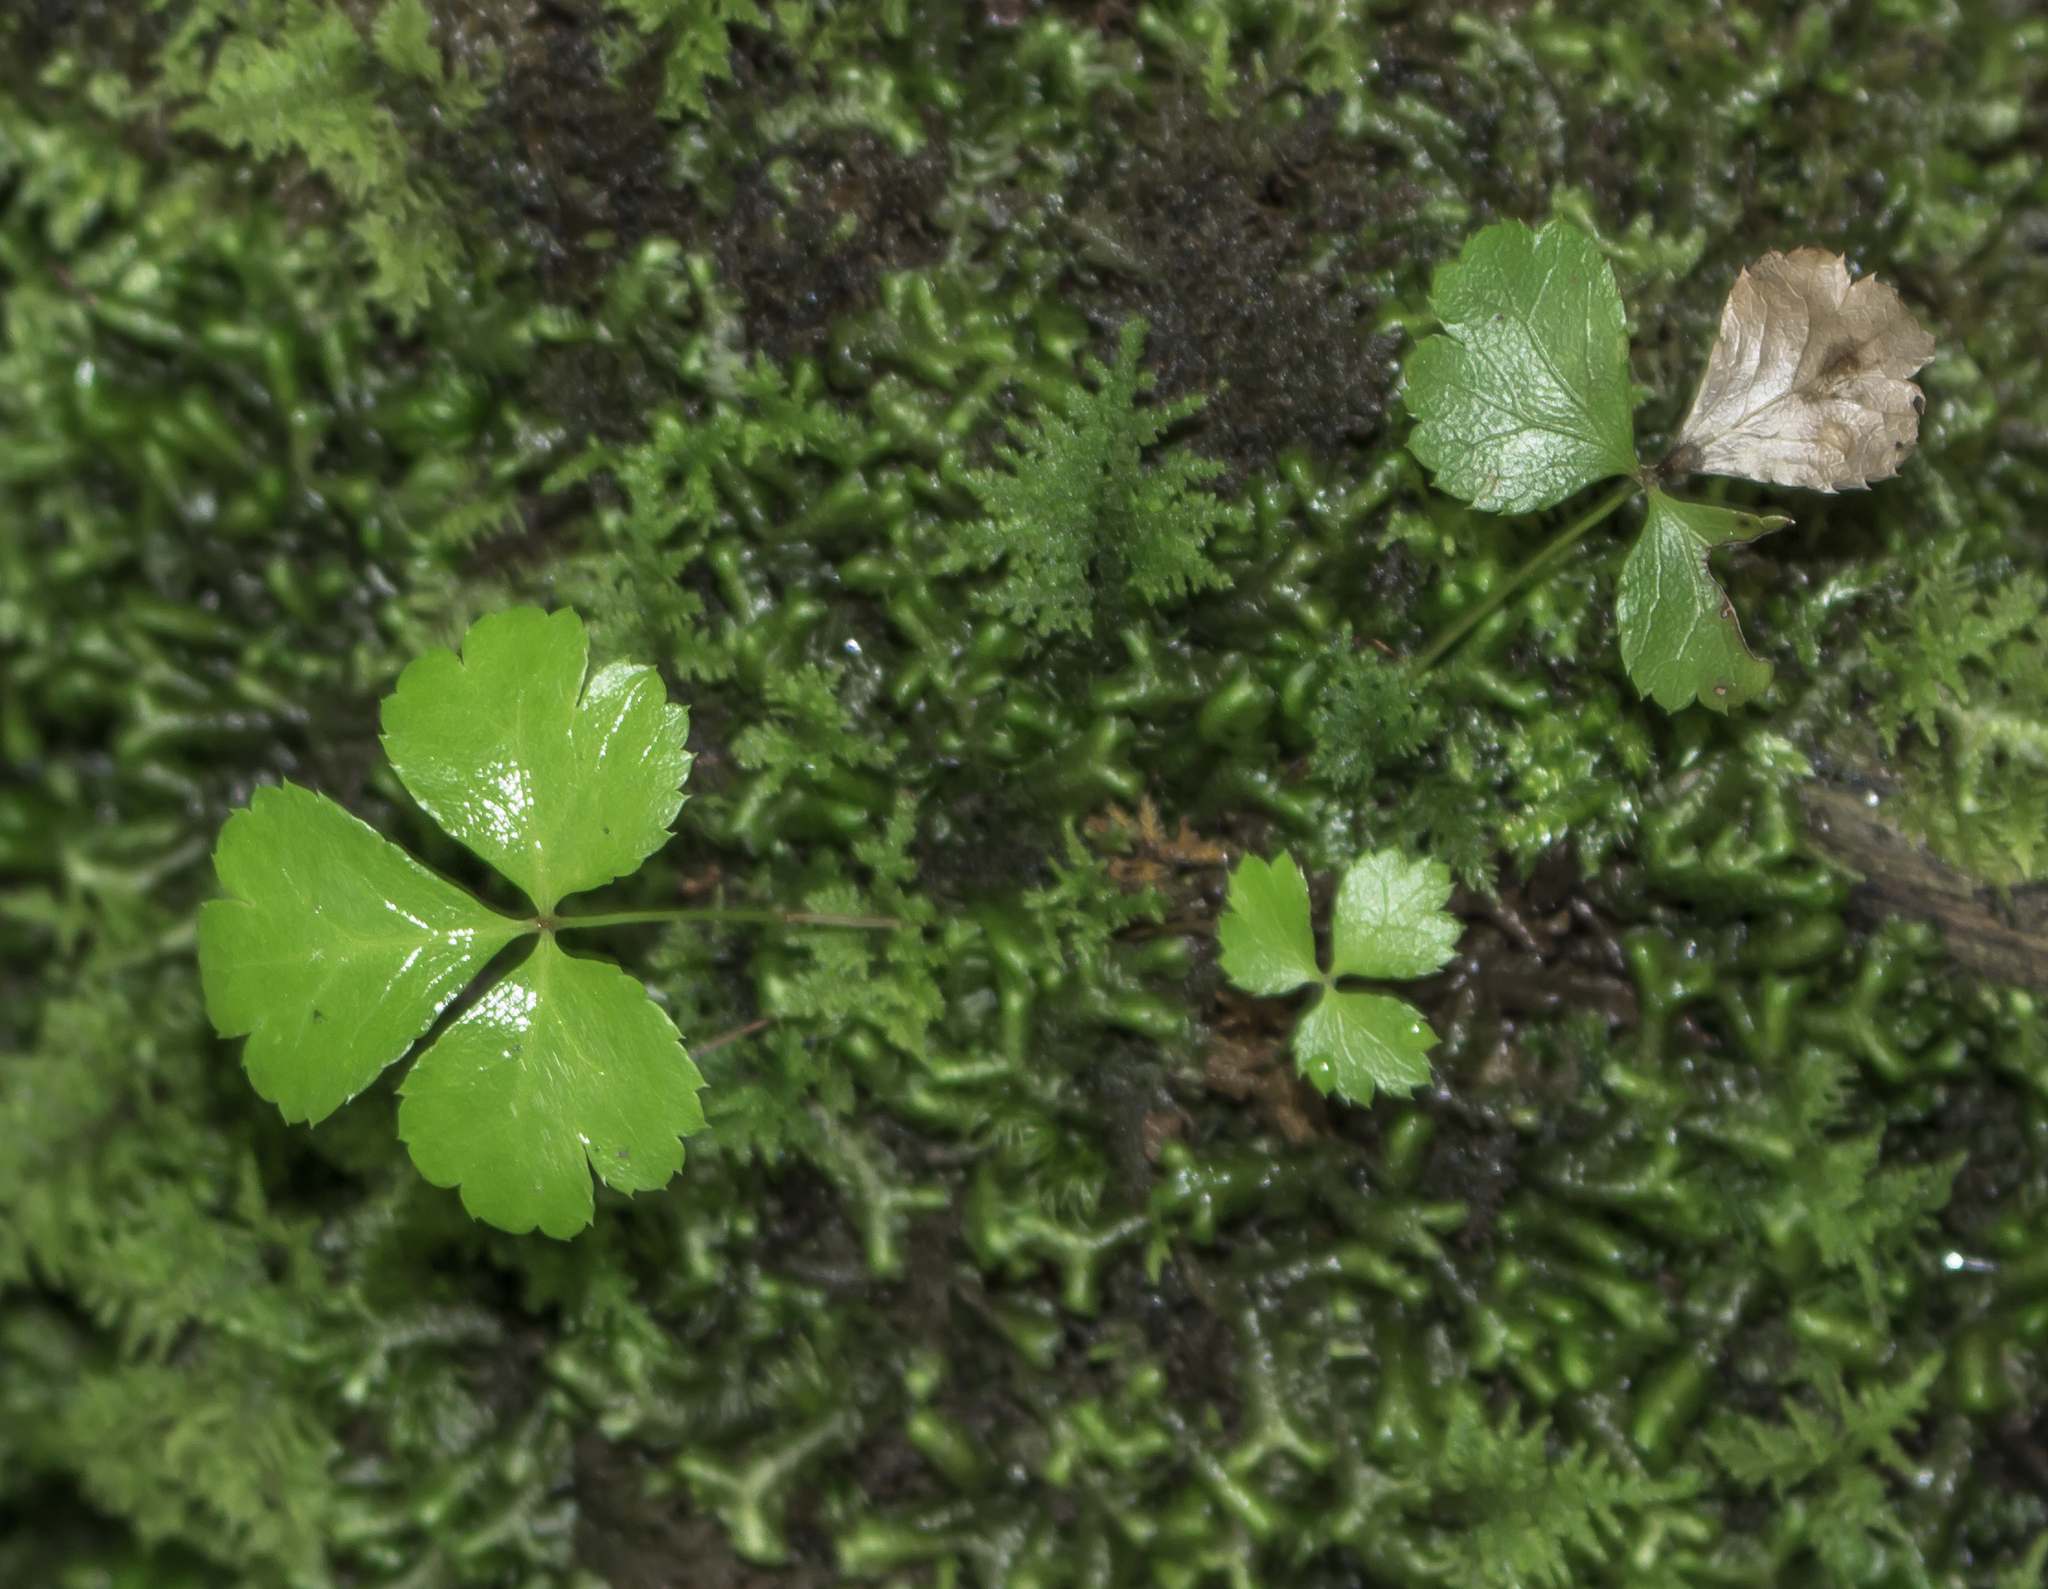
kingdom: Plantae
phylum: Tracheophyta
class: Magnoliopsida
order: Ranunculales
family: Ranunculaceae
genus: Coptis
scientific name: Coptis trifolia
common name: Canker-root
